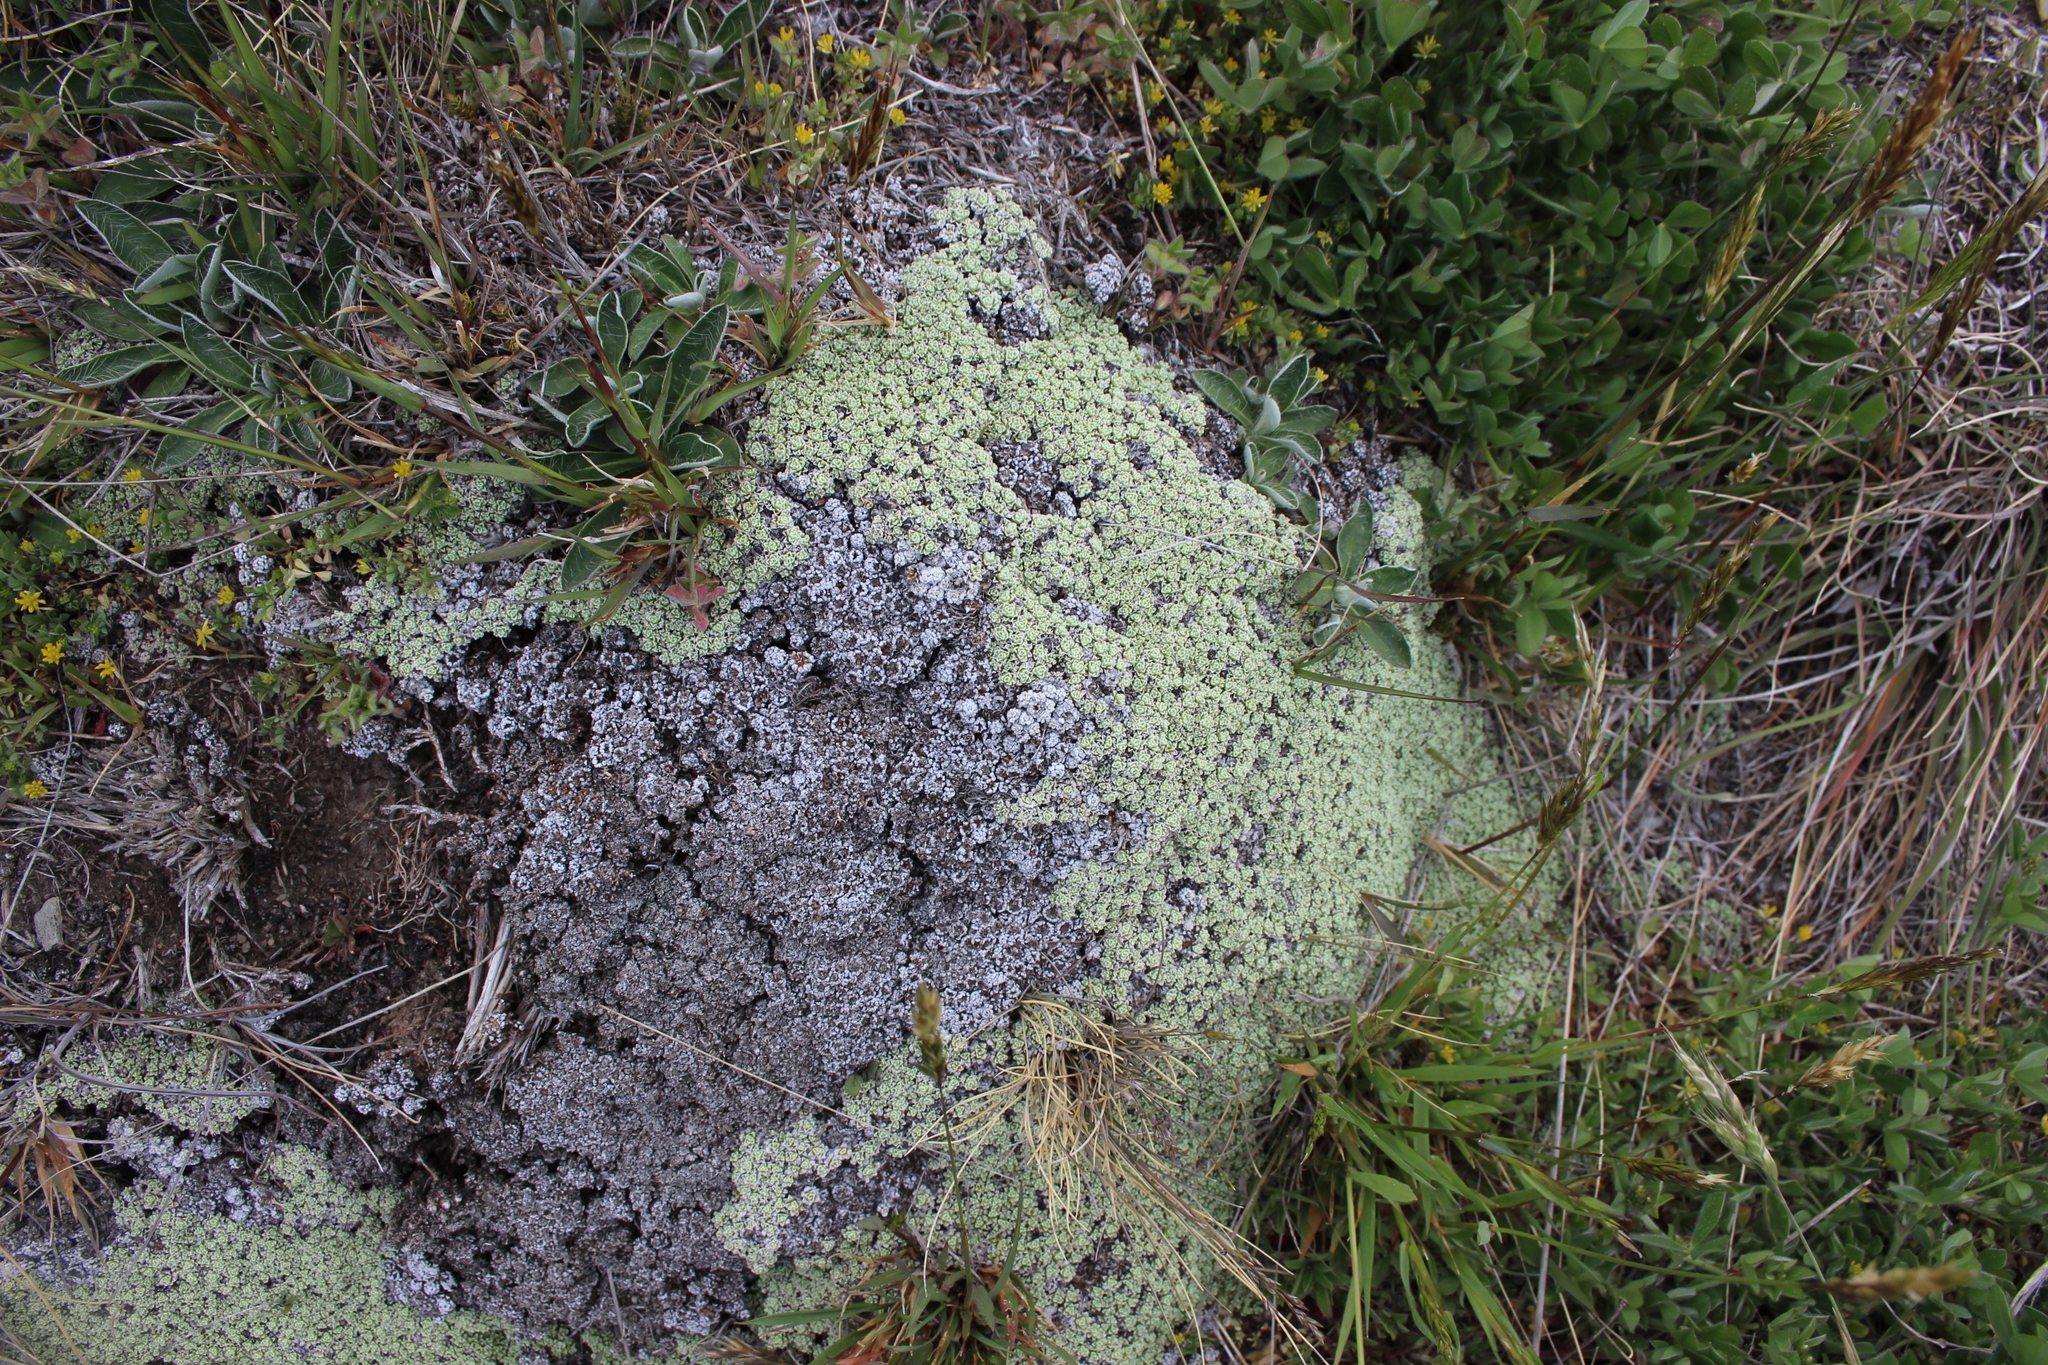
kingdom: Plantae
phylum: Tracheophyta
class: Magnoliopsida
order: Asterales
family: Asteraceae
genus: Raoulia
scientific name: Raoulia parkii
